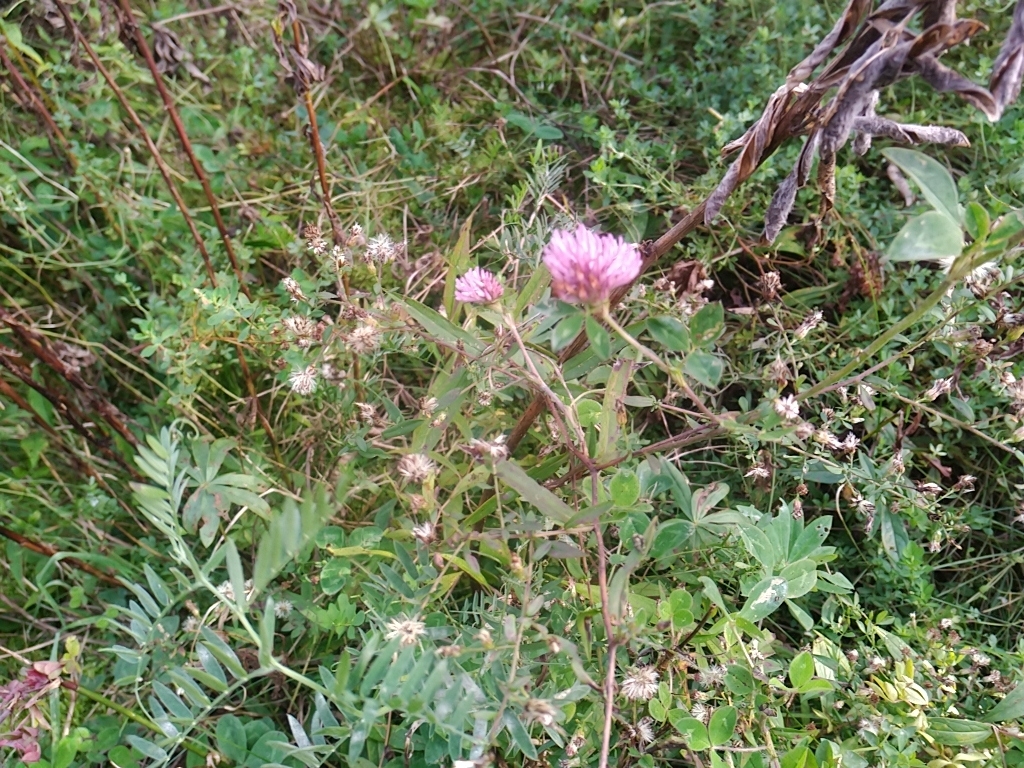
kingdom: Plantae
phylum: Tracheophyta
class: Magnoliopsida
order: Fabales
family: Fabaceae
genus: Trifolium
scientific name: Trifolium pratense
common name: Red clover
